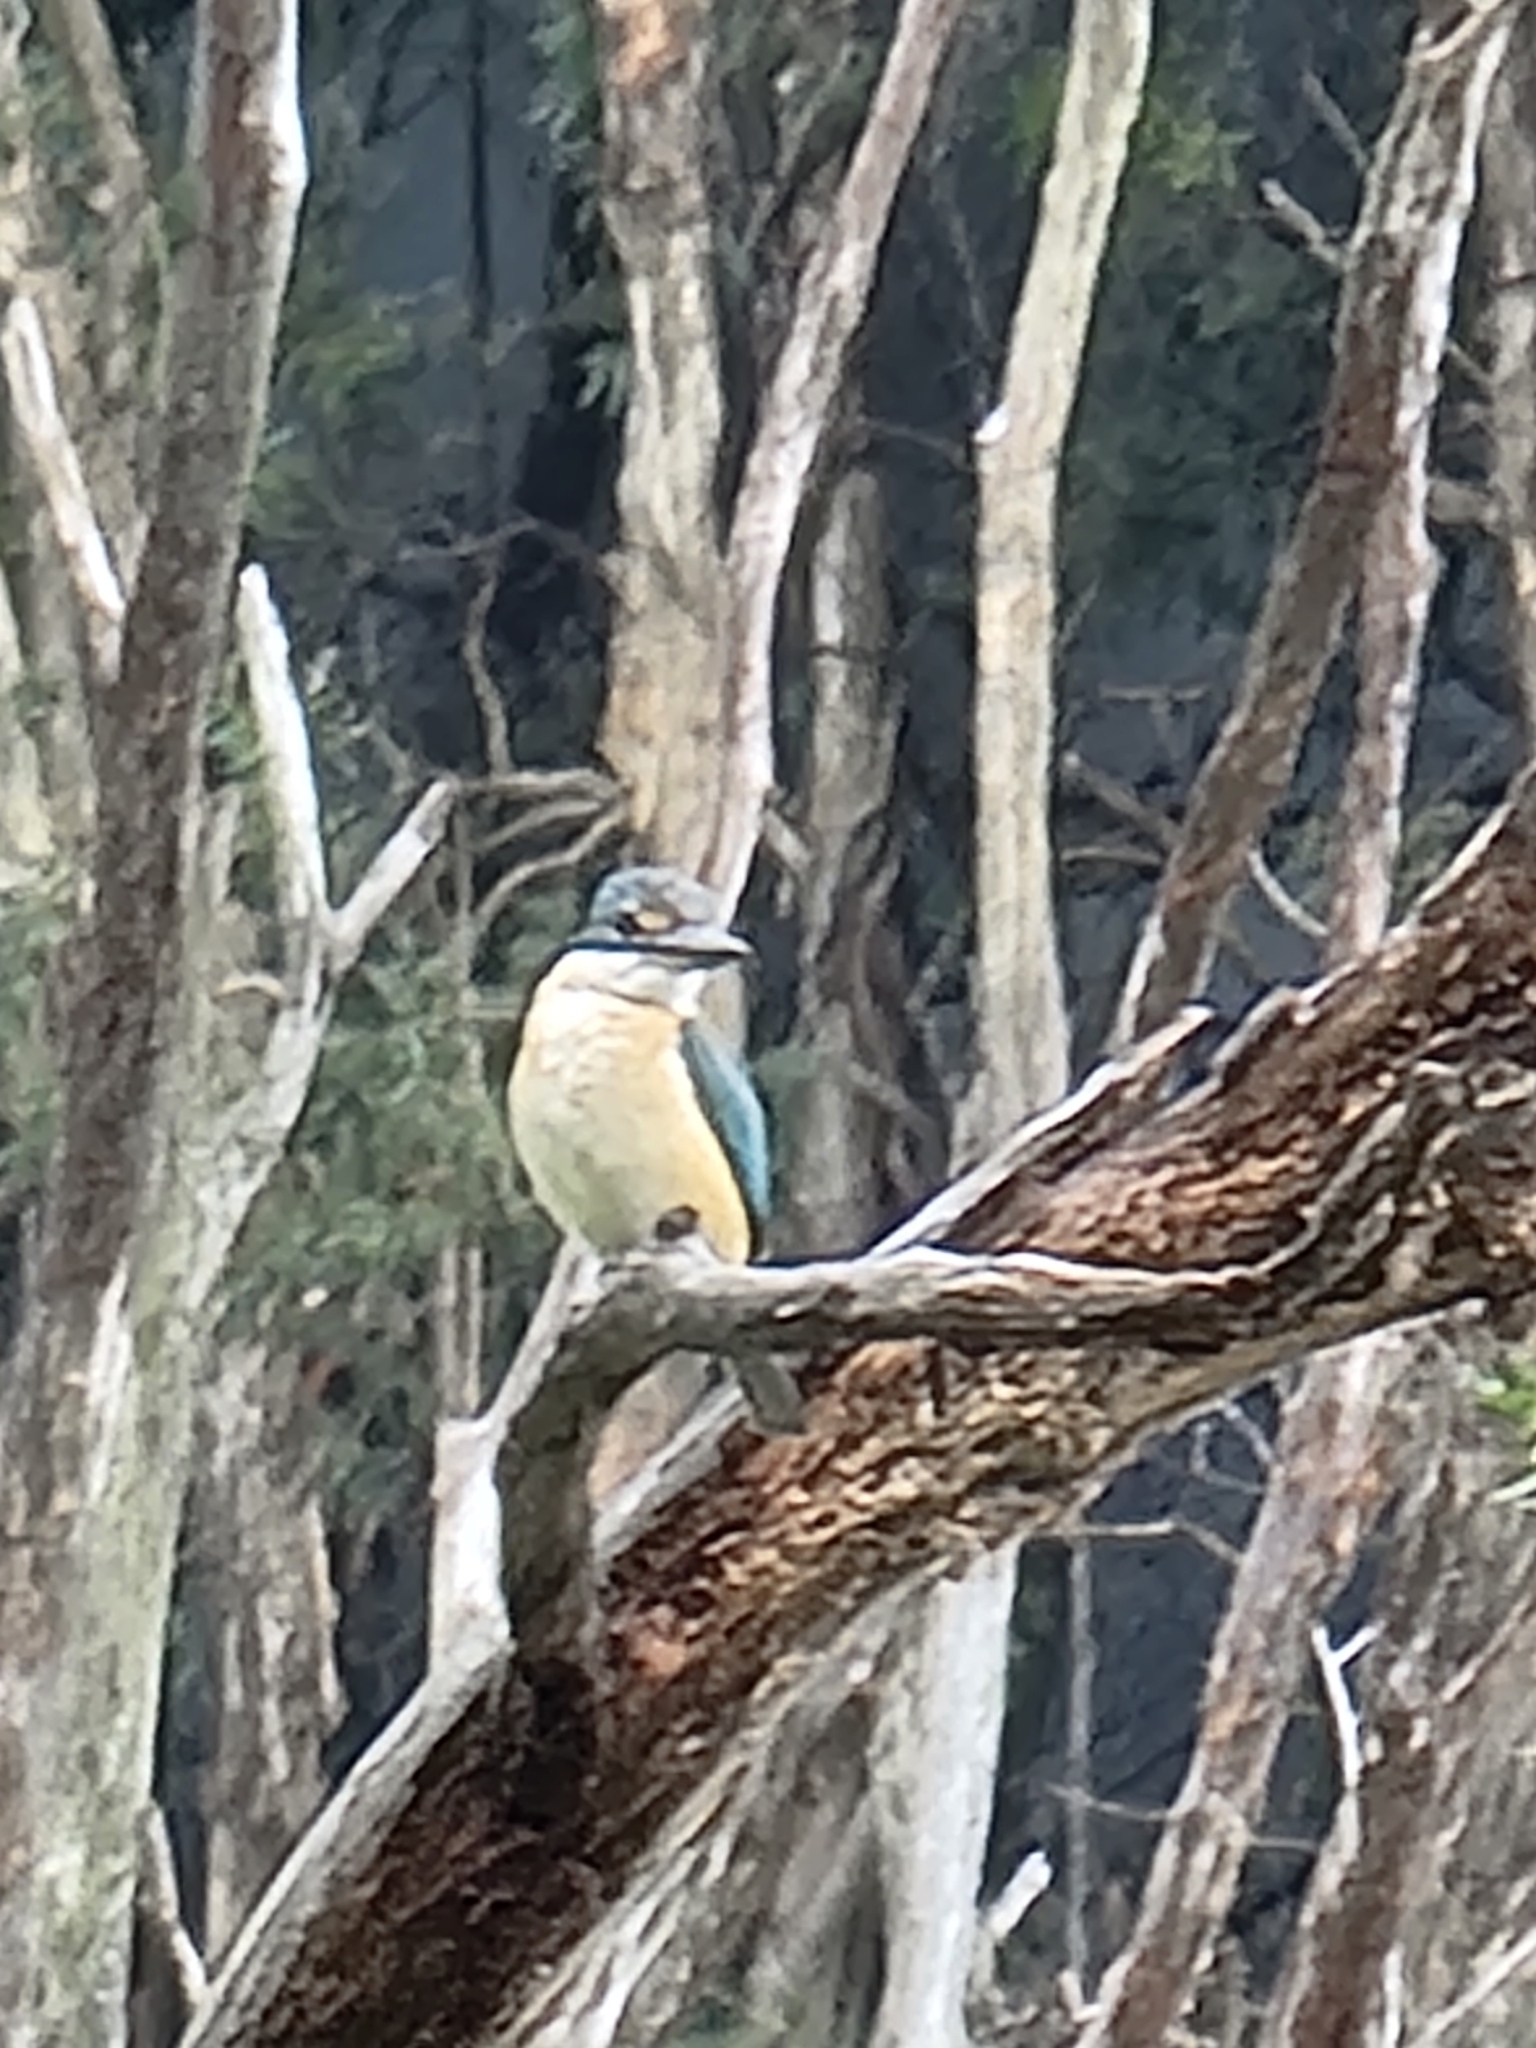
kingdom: Animalia
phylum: Chordata
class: Aves
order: Coraciiformes
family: Alcedinidae
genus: Todiramphus
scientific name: Todiramphus sanctus
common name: Sacred kingfisher
